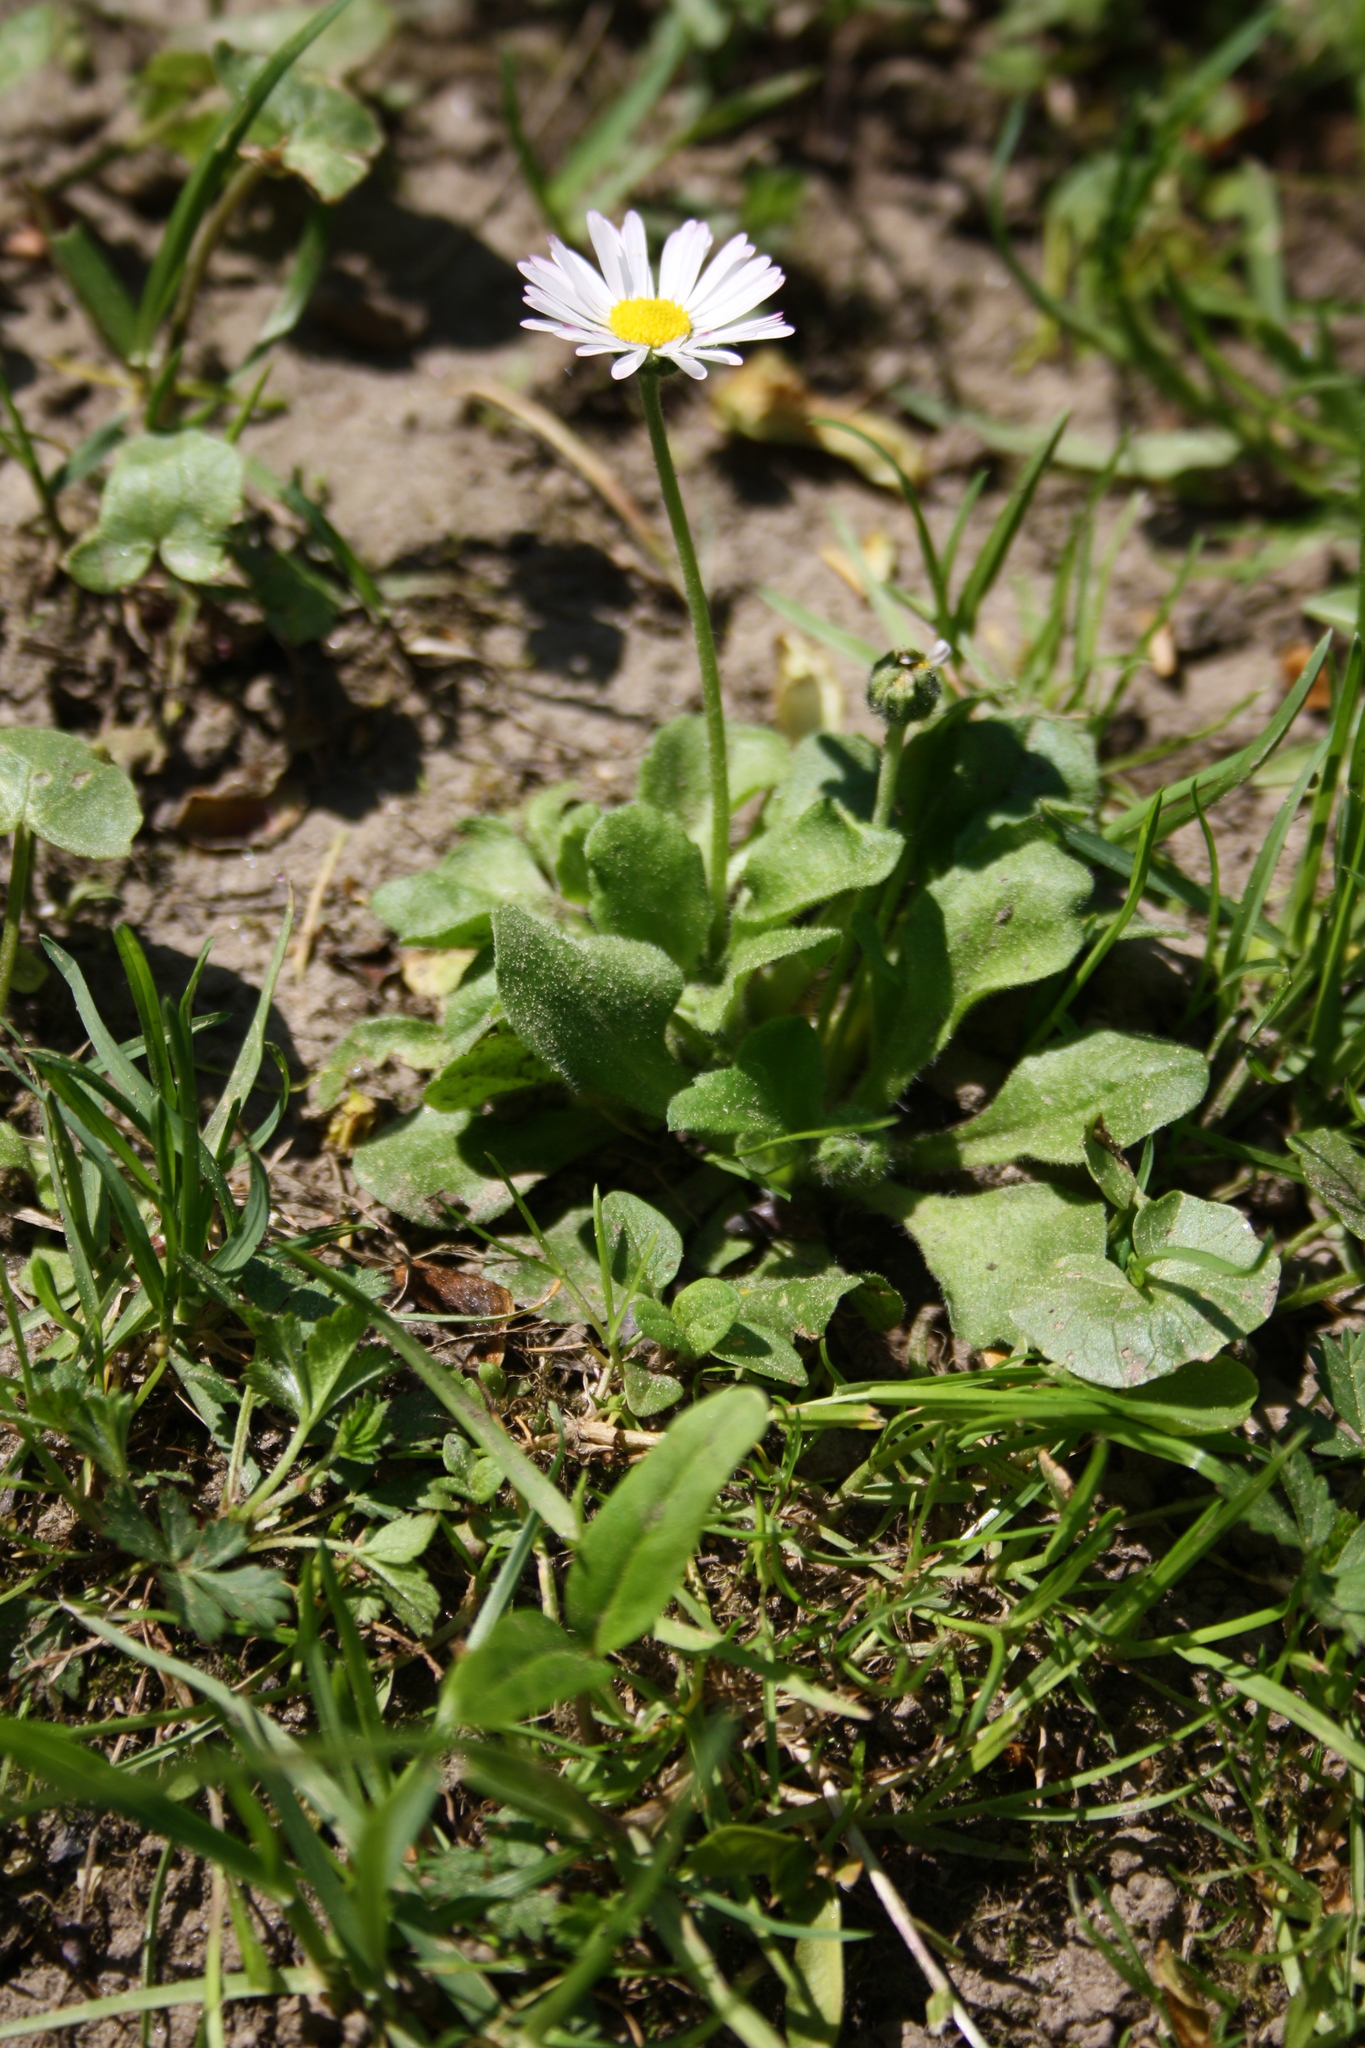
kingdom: Plantae
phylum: Tracheophyta
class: Magnoliopsida
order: Asterales
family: Asteraceae
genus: Bellis
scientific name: Bellis perennis
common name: Lawndaisy
